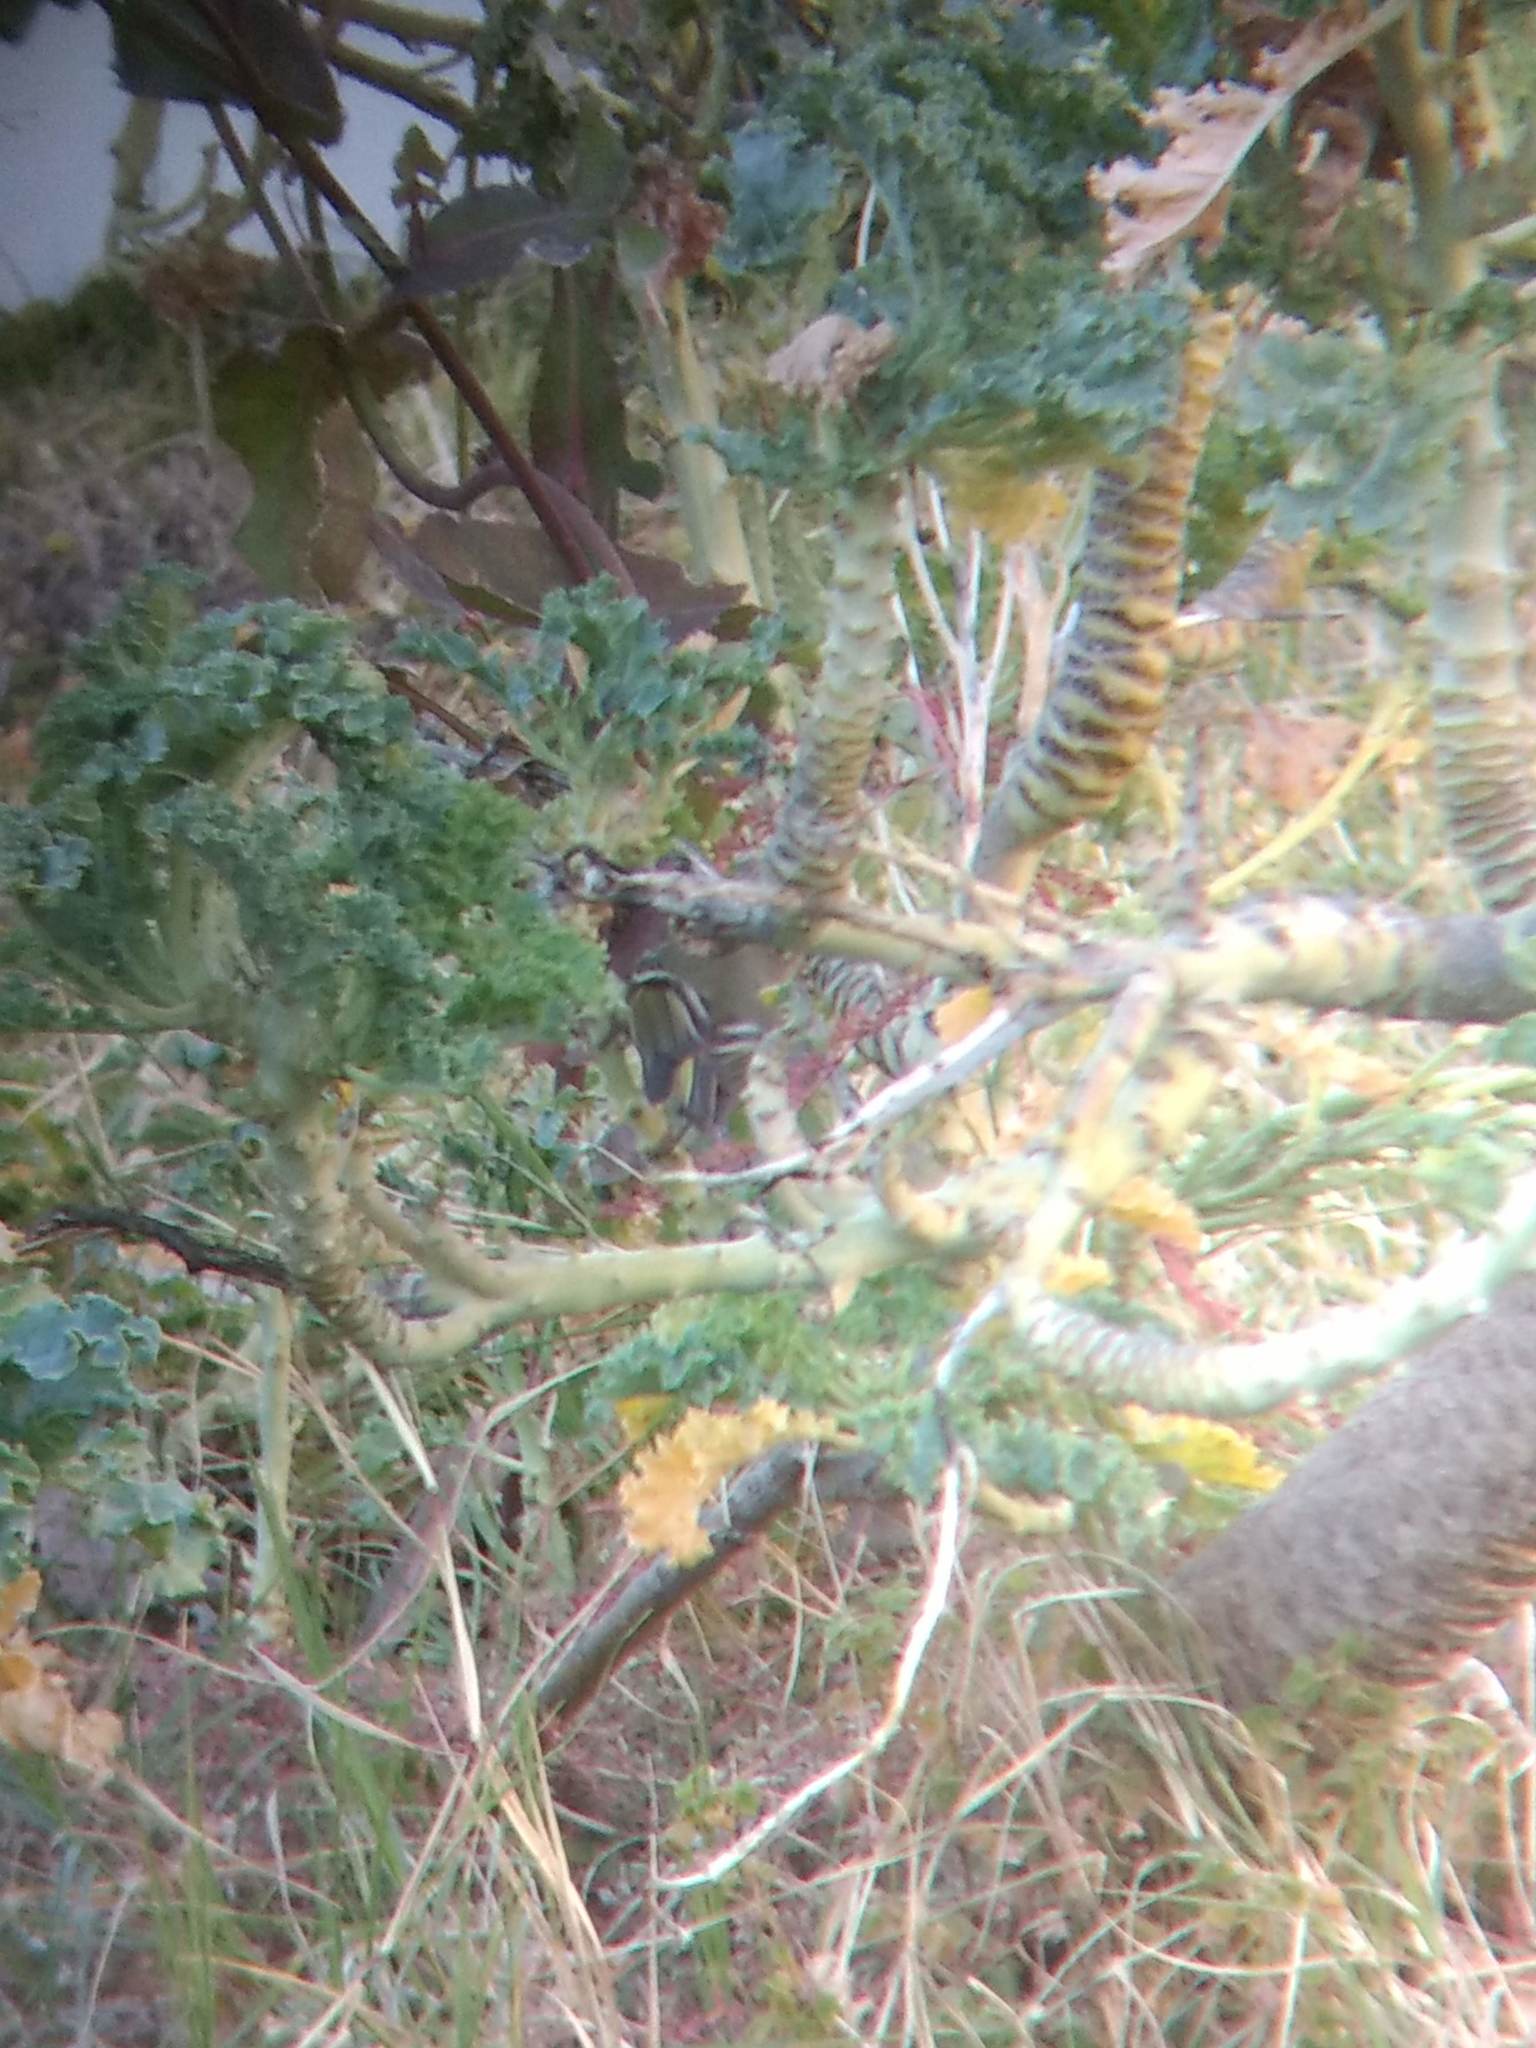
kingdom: Animalia
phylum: Chordata
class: Aves
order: Passeriformes
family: Regulidae
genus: Regulus
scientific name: Regulus calendula
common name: Ruby-crowned kinglet
